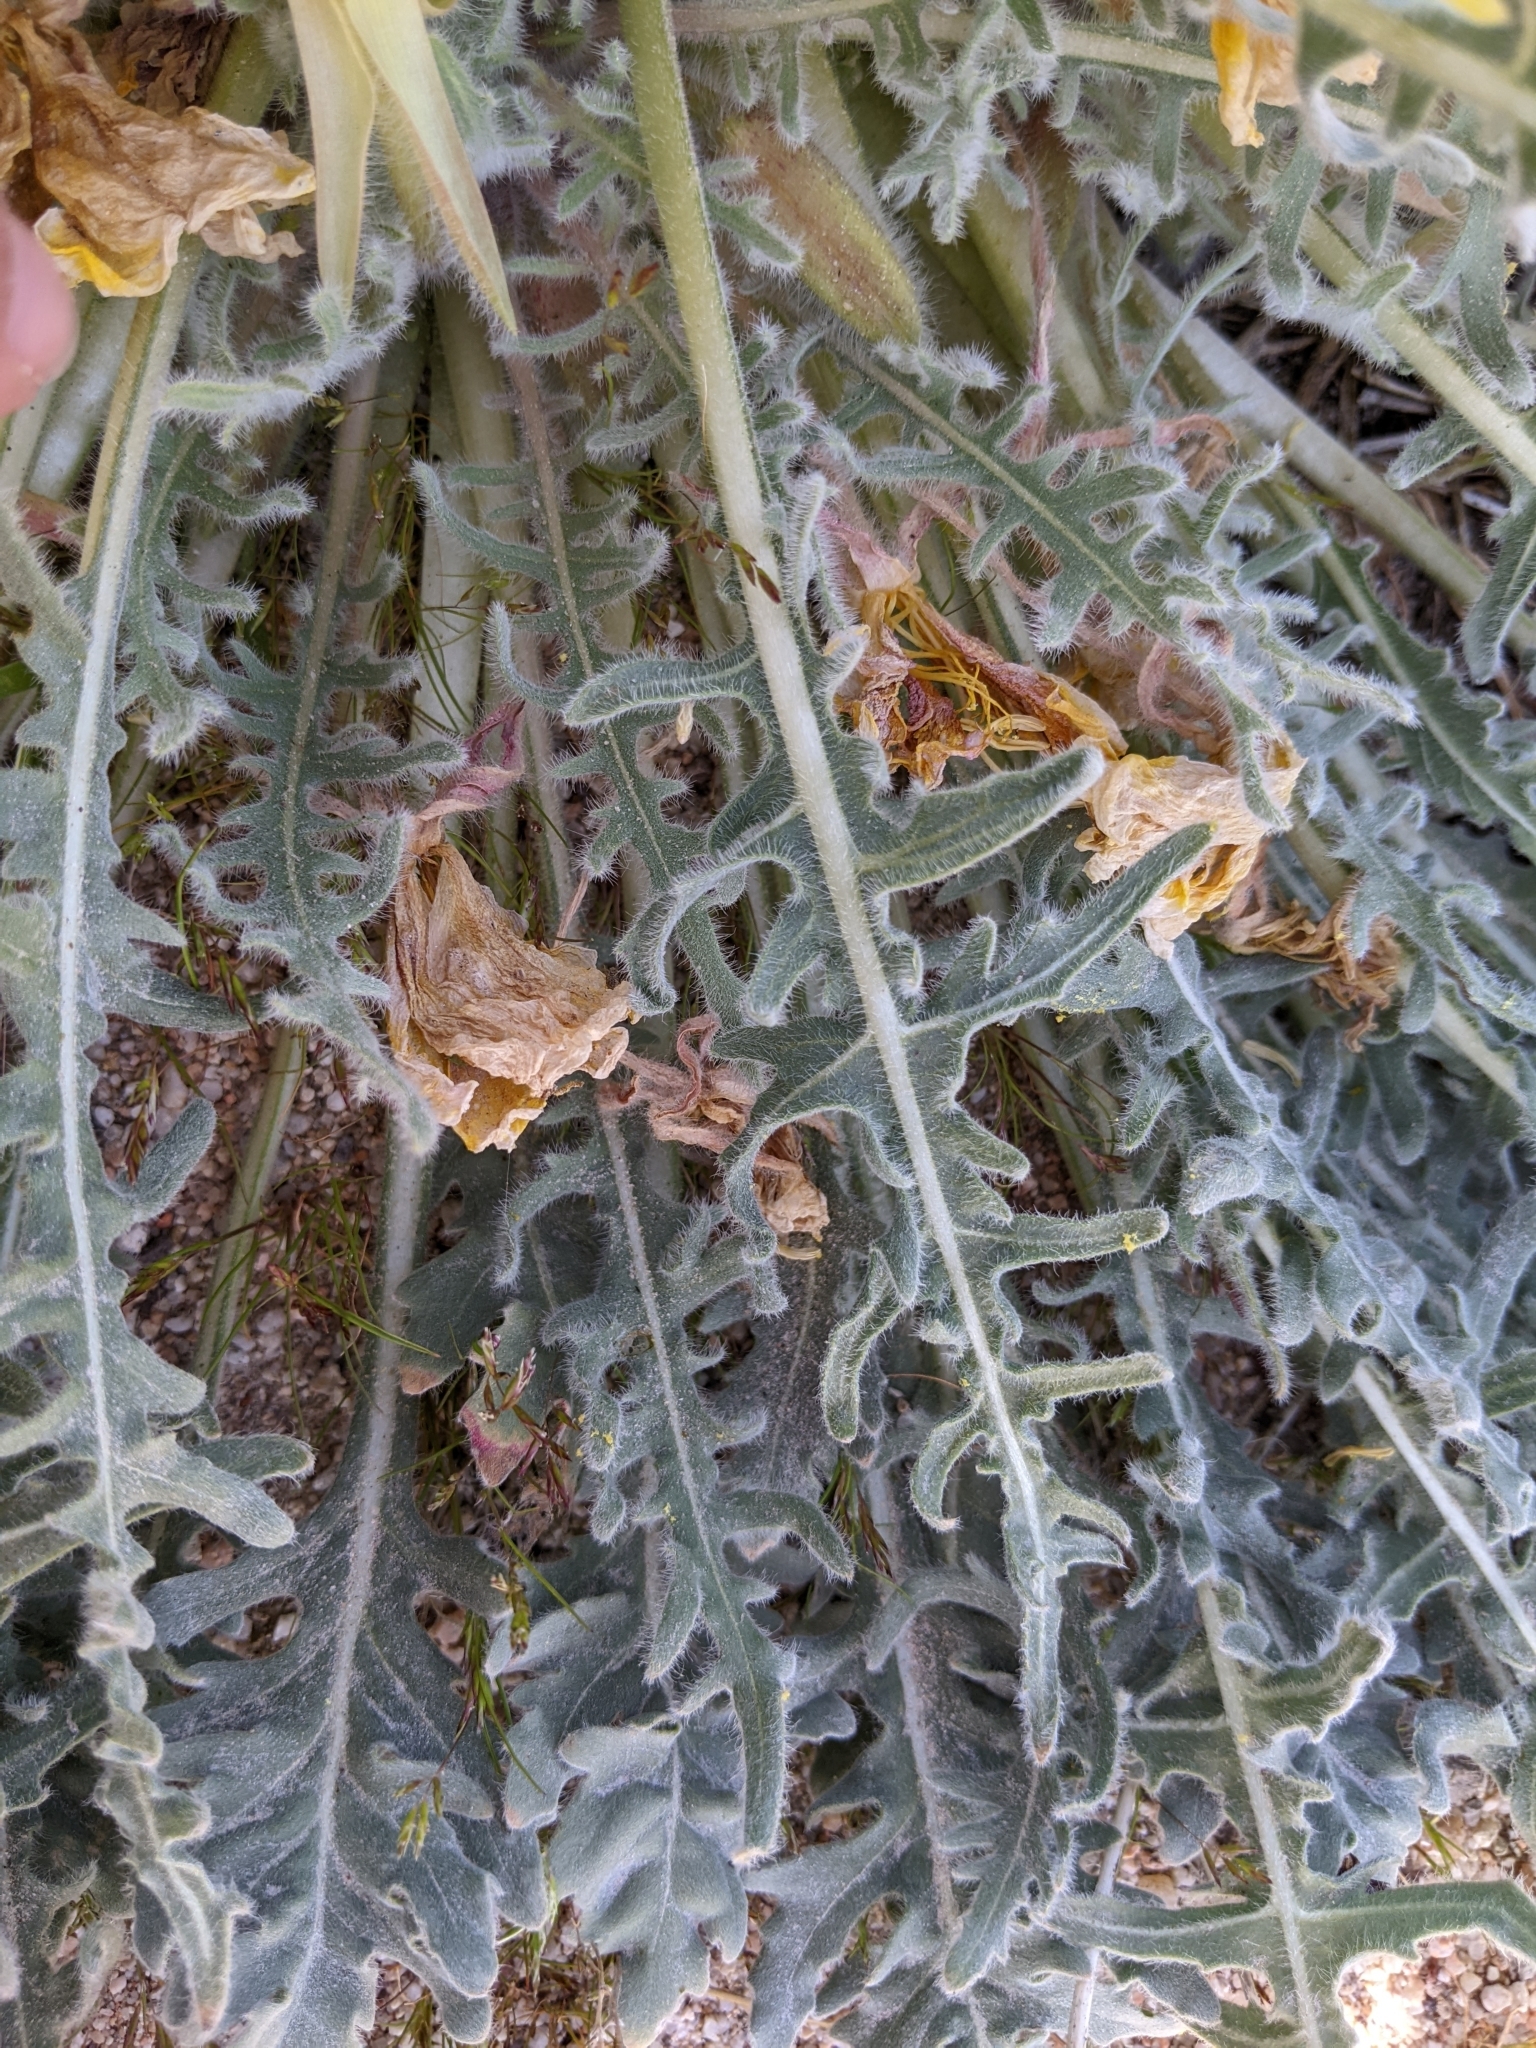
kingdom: Plantae
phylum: Tracheophyta
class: Magnoliopsida
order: Myrtales
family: Onagraceae
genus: Oenothera
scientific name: Oenothera primiveris
